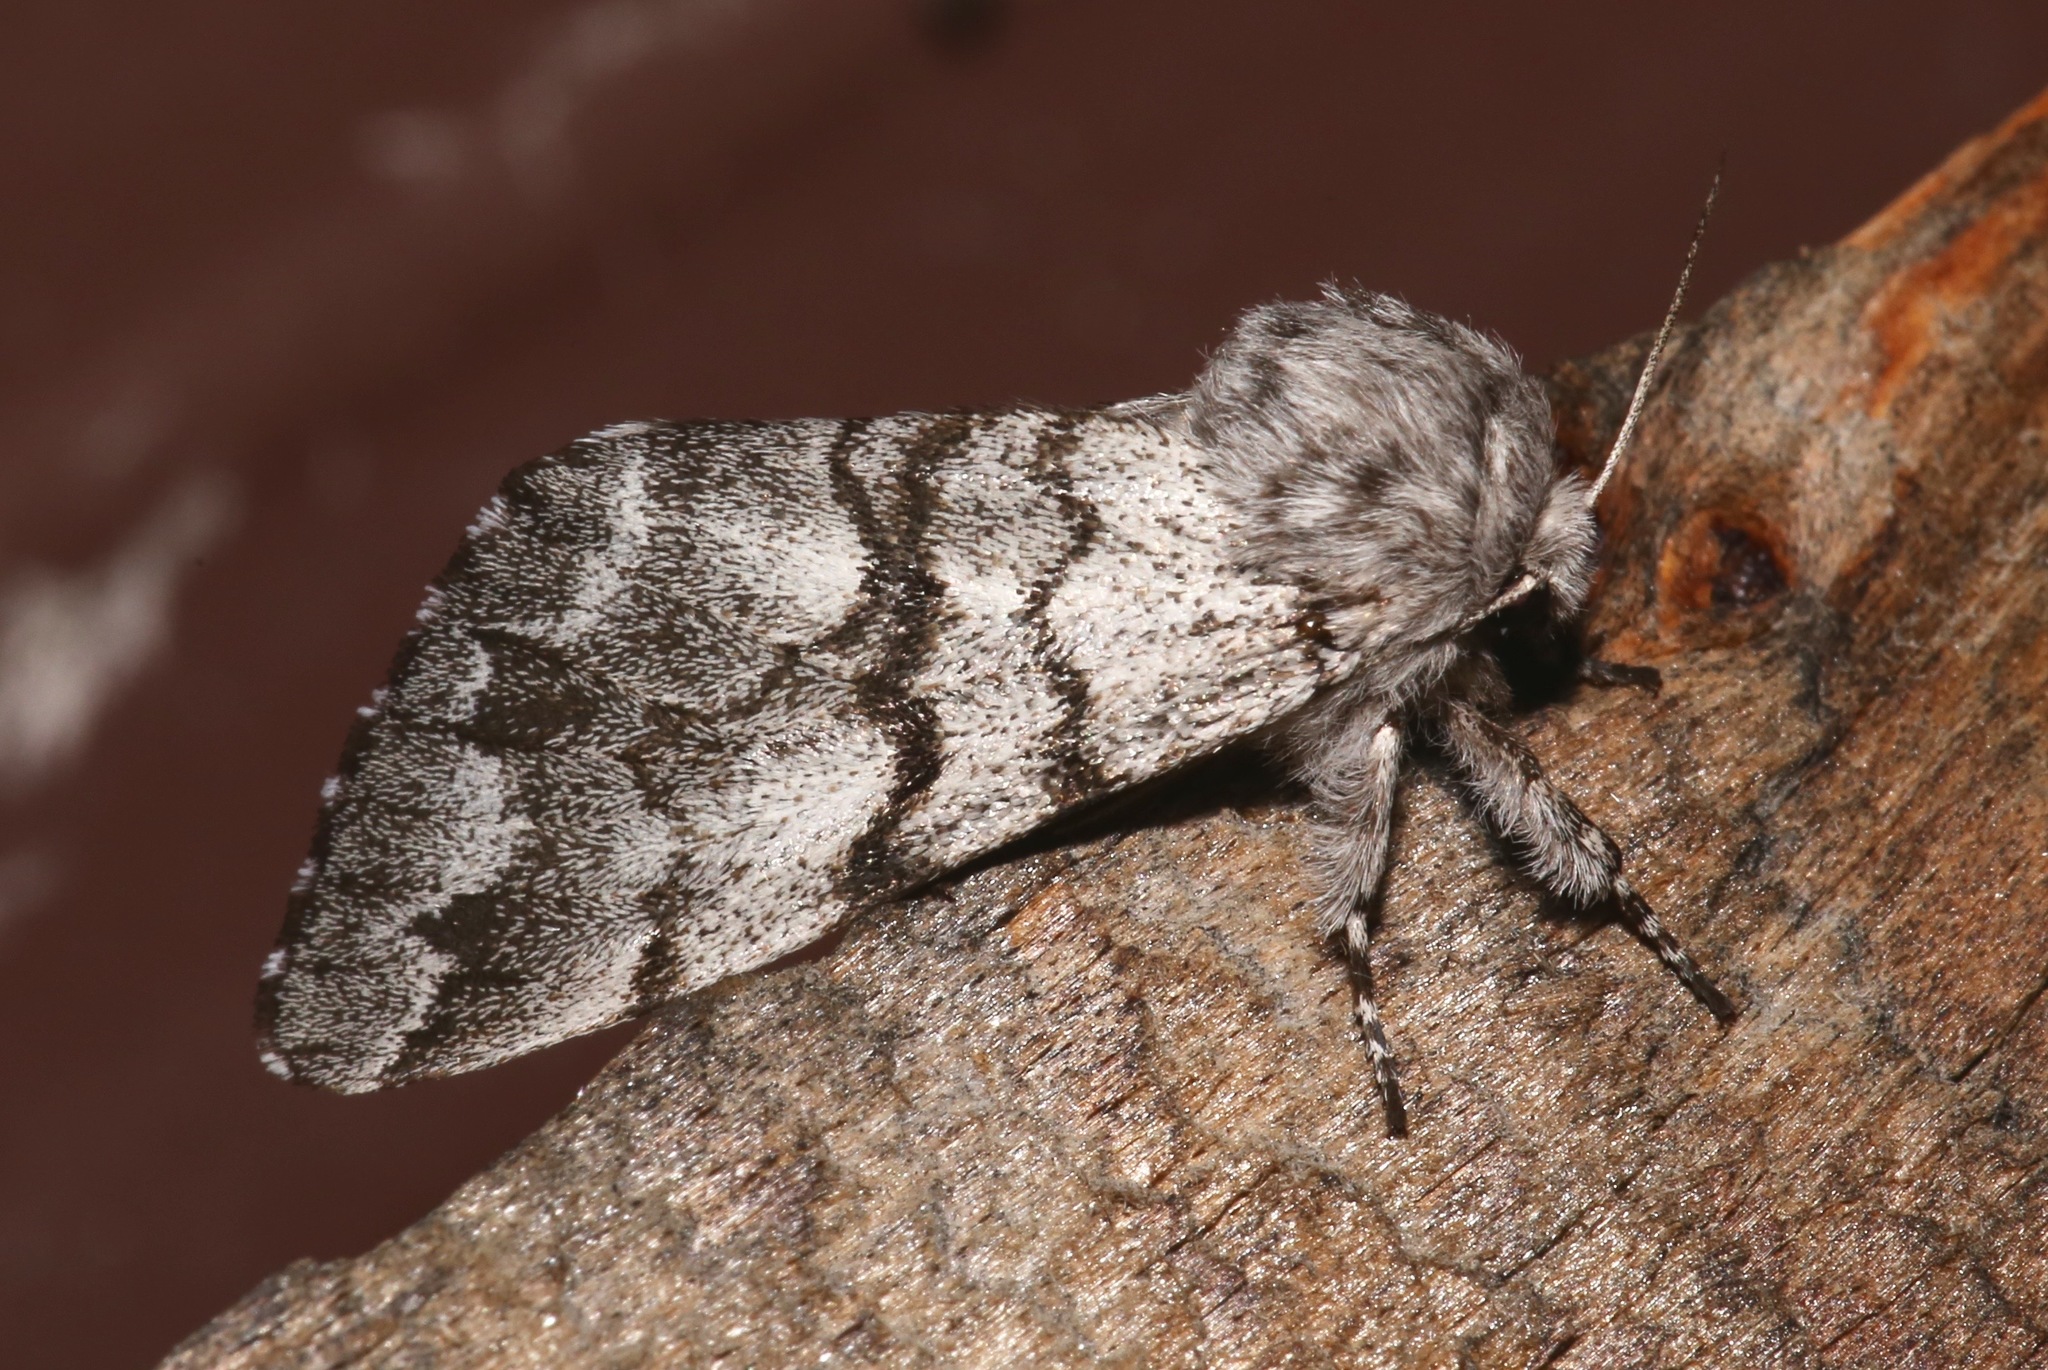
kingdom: Animalia
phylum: Arthropoda
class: Insecta
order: Lepidoptera
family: Noctuidae
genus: Panthea
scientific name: Panthea furcilla
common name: Eastern panthea moth
